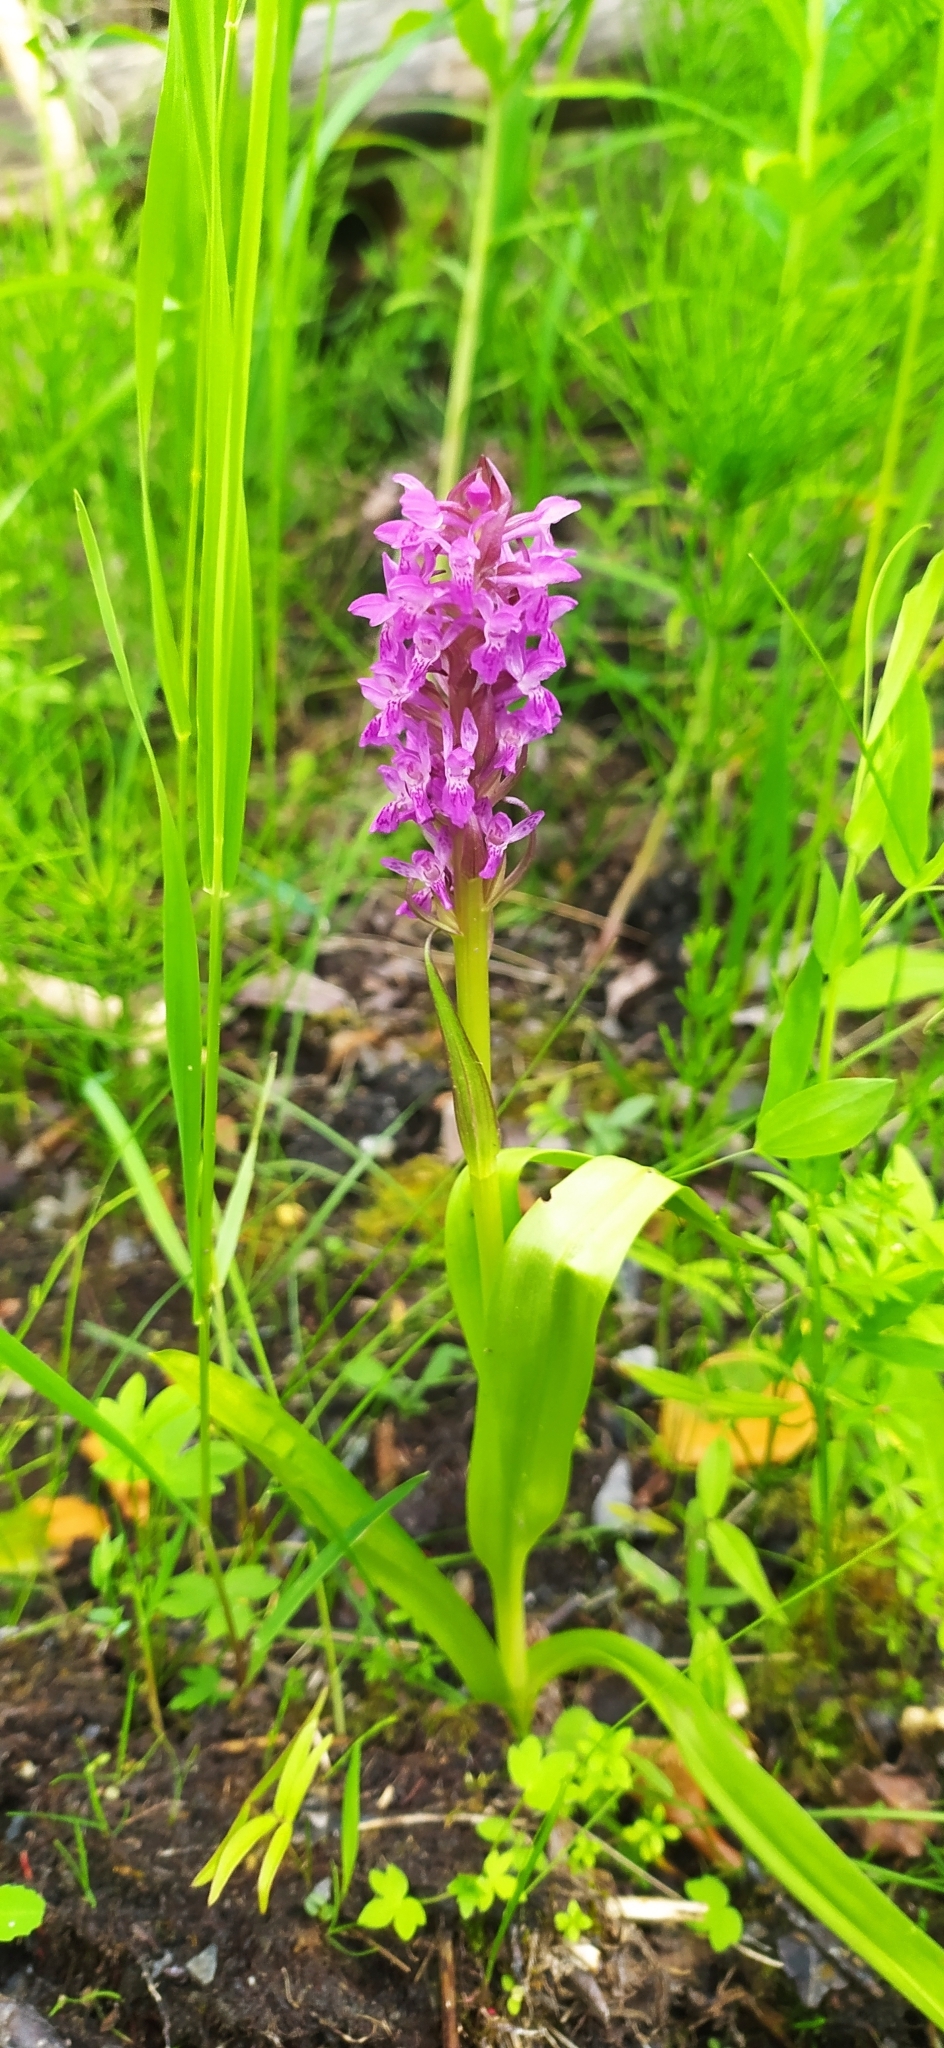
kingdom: Plantae
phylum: Tracheophyta
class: Liliopsida
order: Asparagales
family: Orchidaceae
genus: Dactylorhiza
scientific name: Dactylorhiza incarnata
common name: Early marsh-orchid
